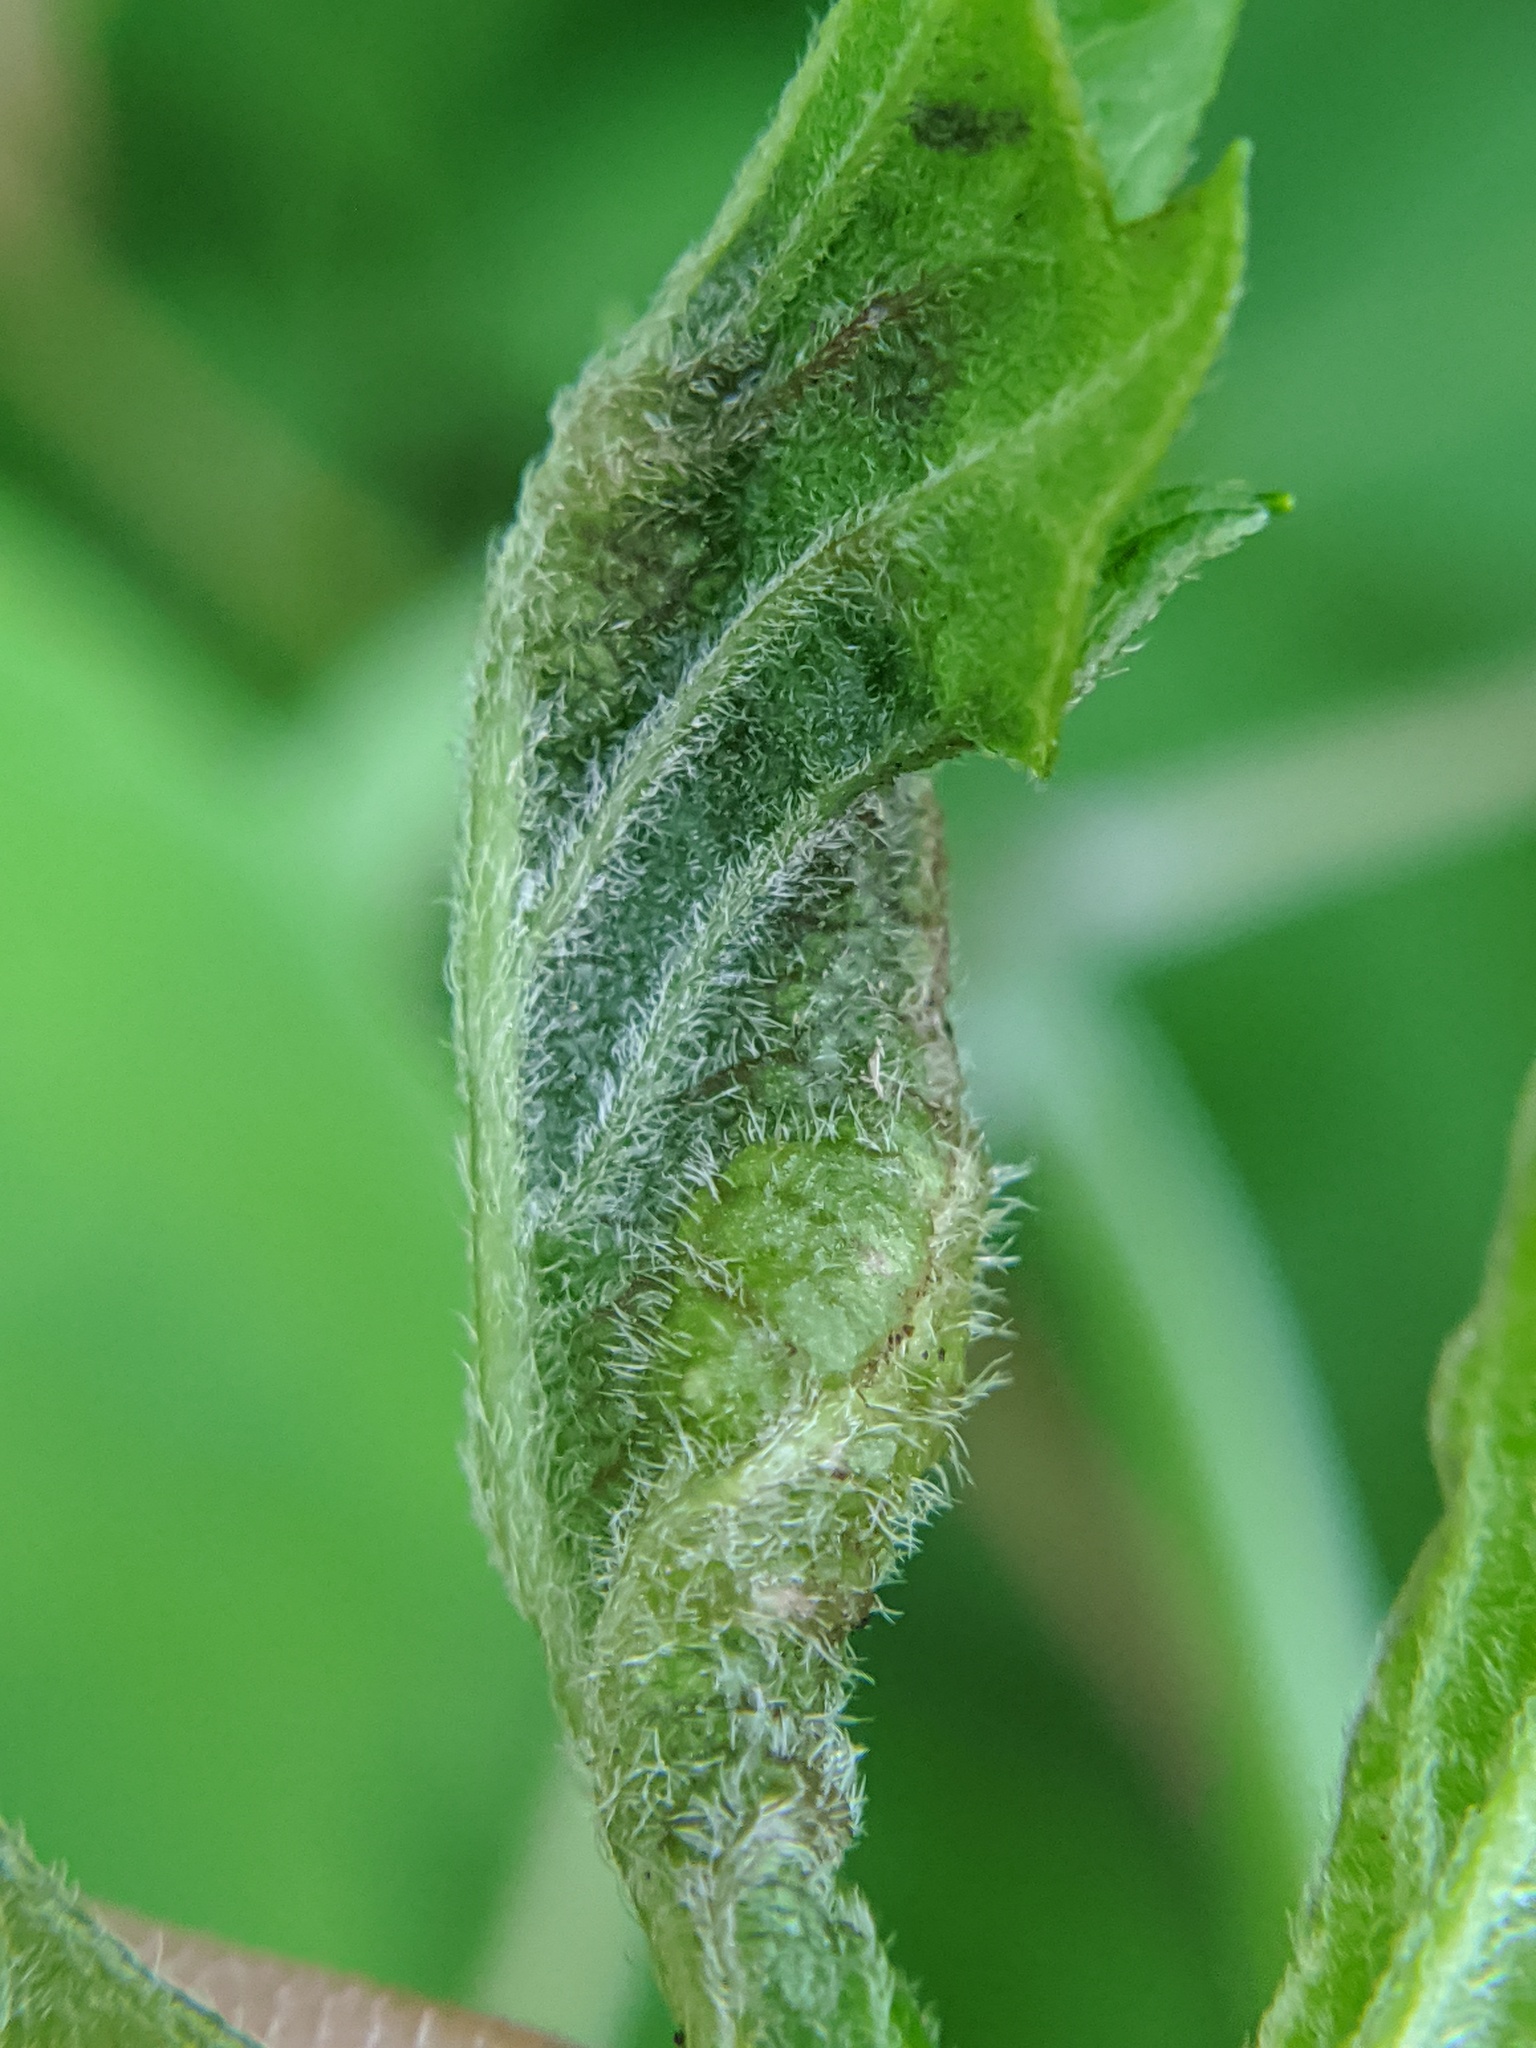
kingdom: Animalia
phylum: Arthropoda
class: Insecta
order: Diptera
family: Cecidomyiidae
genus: Contarinia
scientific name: Contarinia negundinis
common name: Boxelder budgall midge
